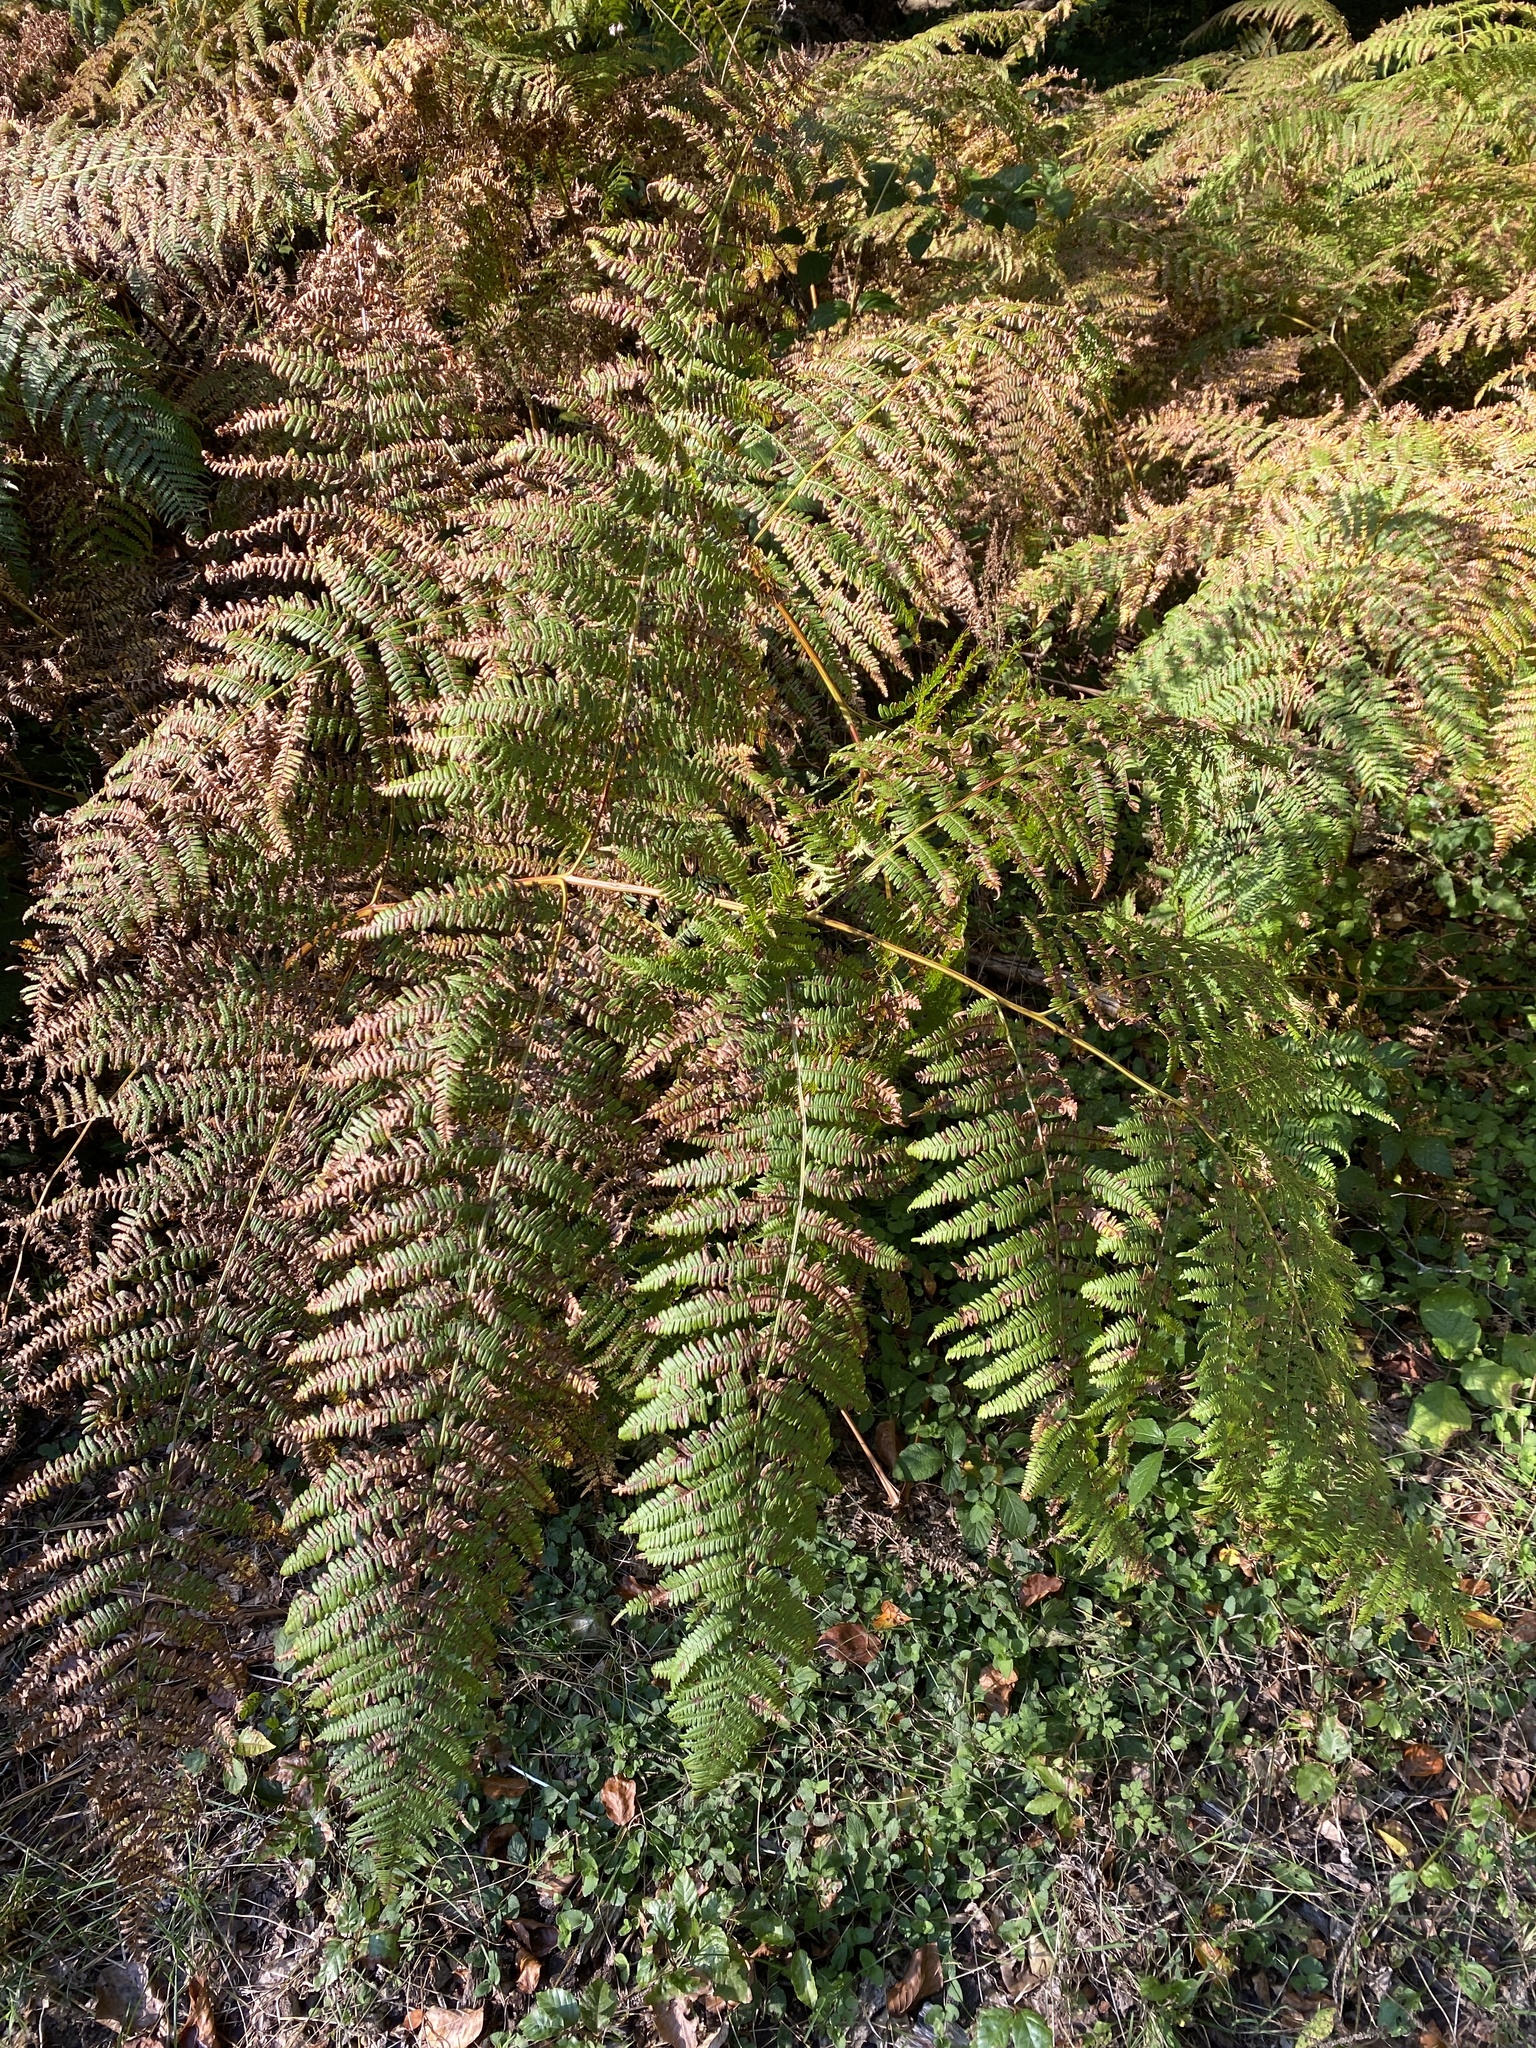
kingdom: Plantae
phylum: Tracheophyta
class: Polypodiopsida
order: Polypodiales
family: Dennstaedtiaceae
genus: Pteridium
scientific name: Pteridium aquilinum
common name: Bracken
